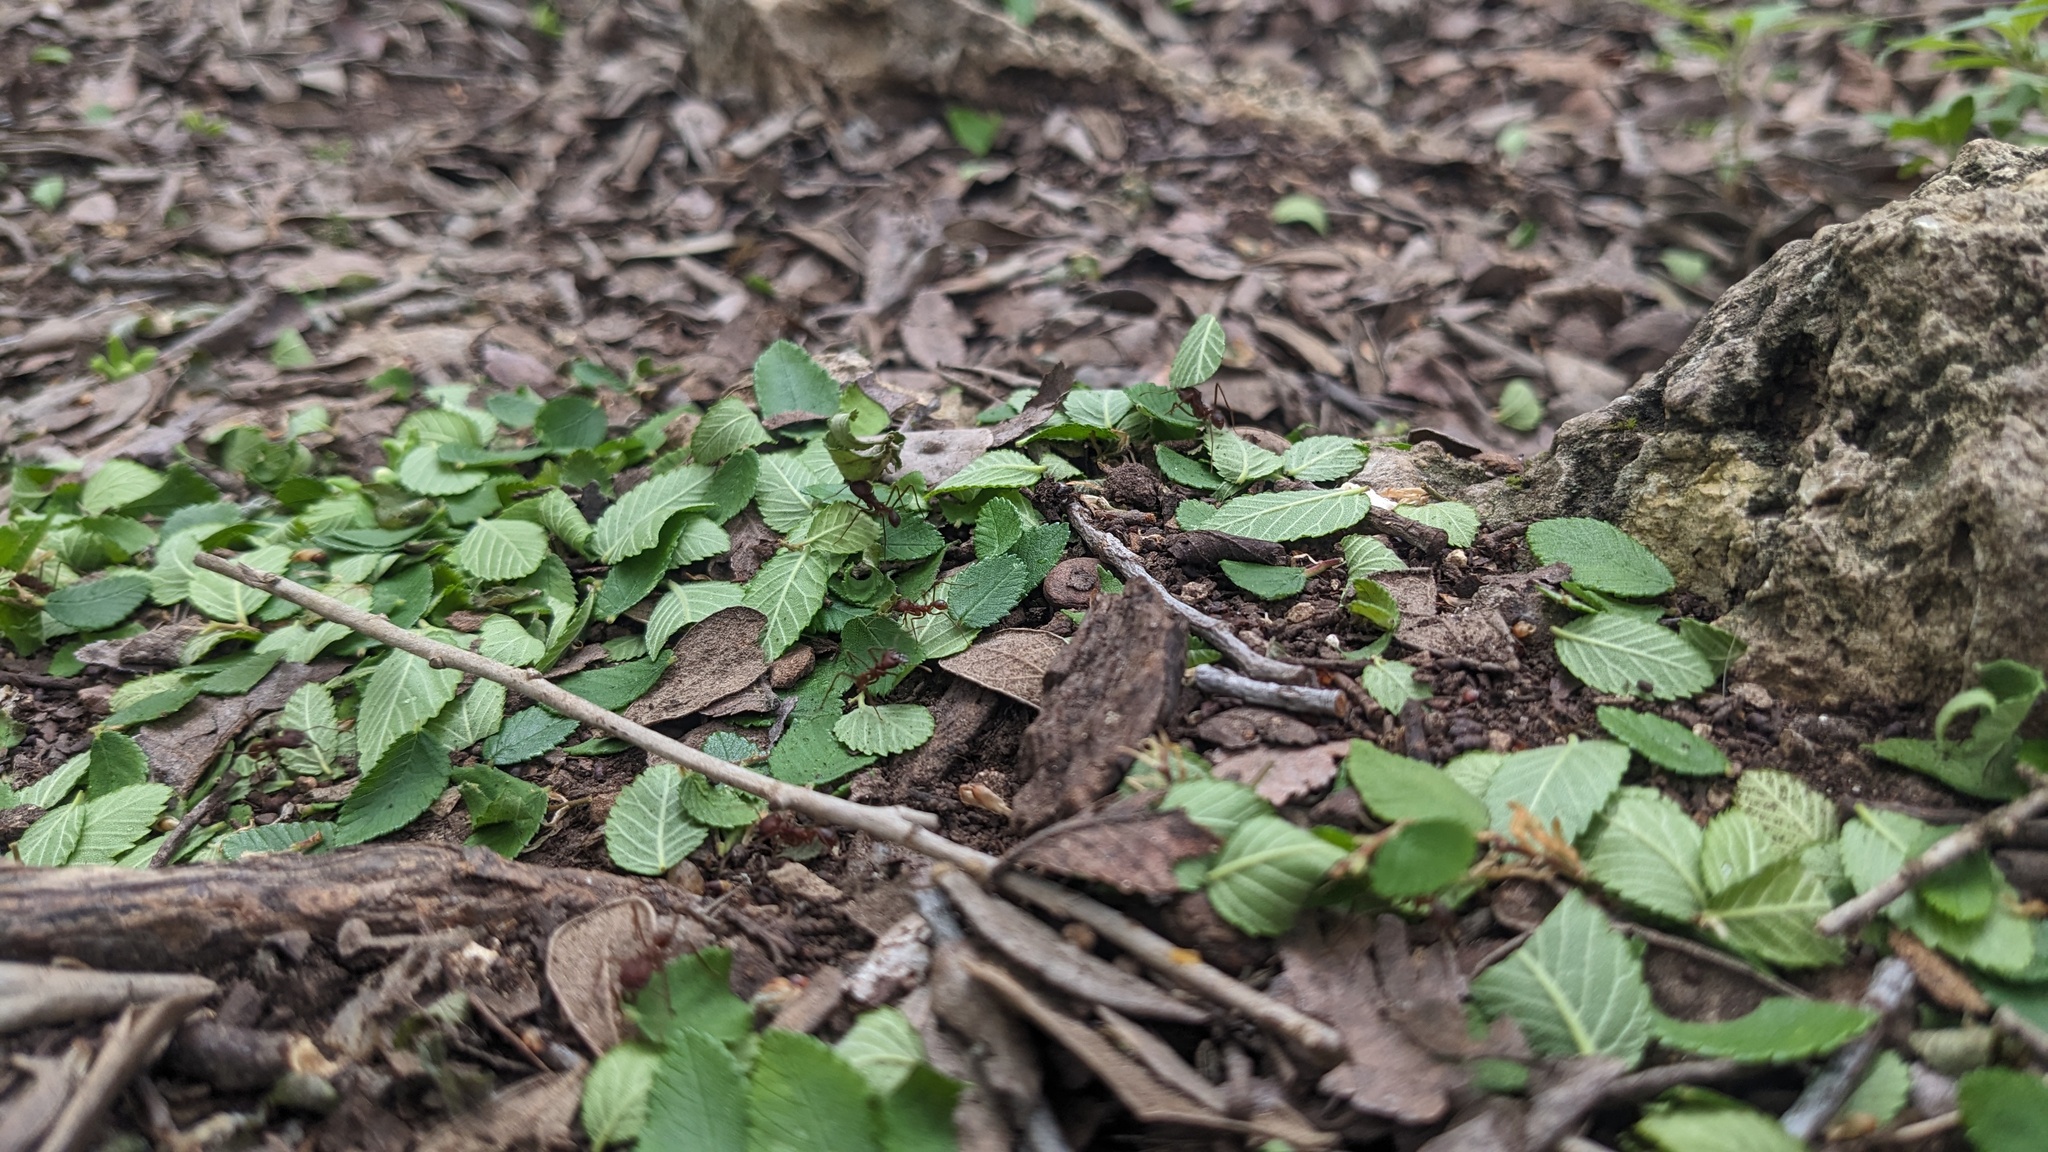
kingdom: Animalia
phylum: Arthropoda
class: Insecta
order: Hymenoptera
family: Formicidae
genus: Atta
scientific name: Atta texana
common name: Texas leafcutting ant
